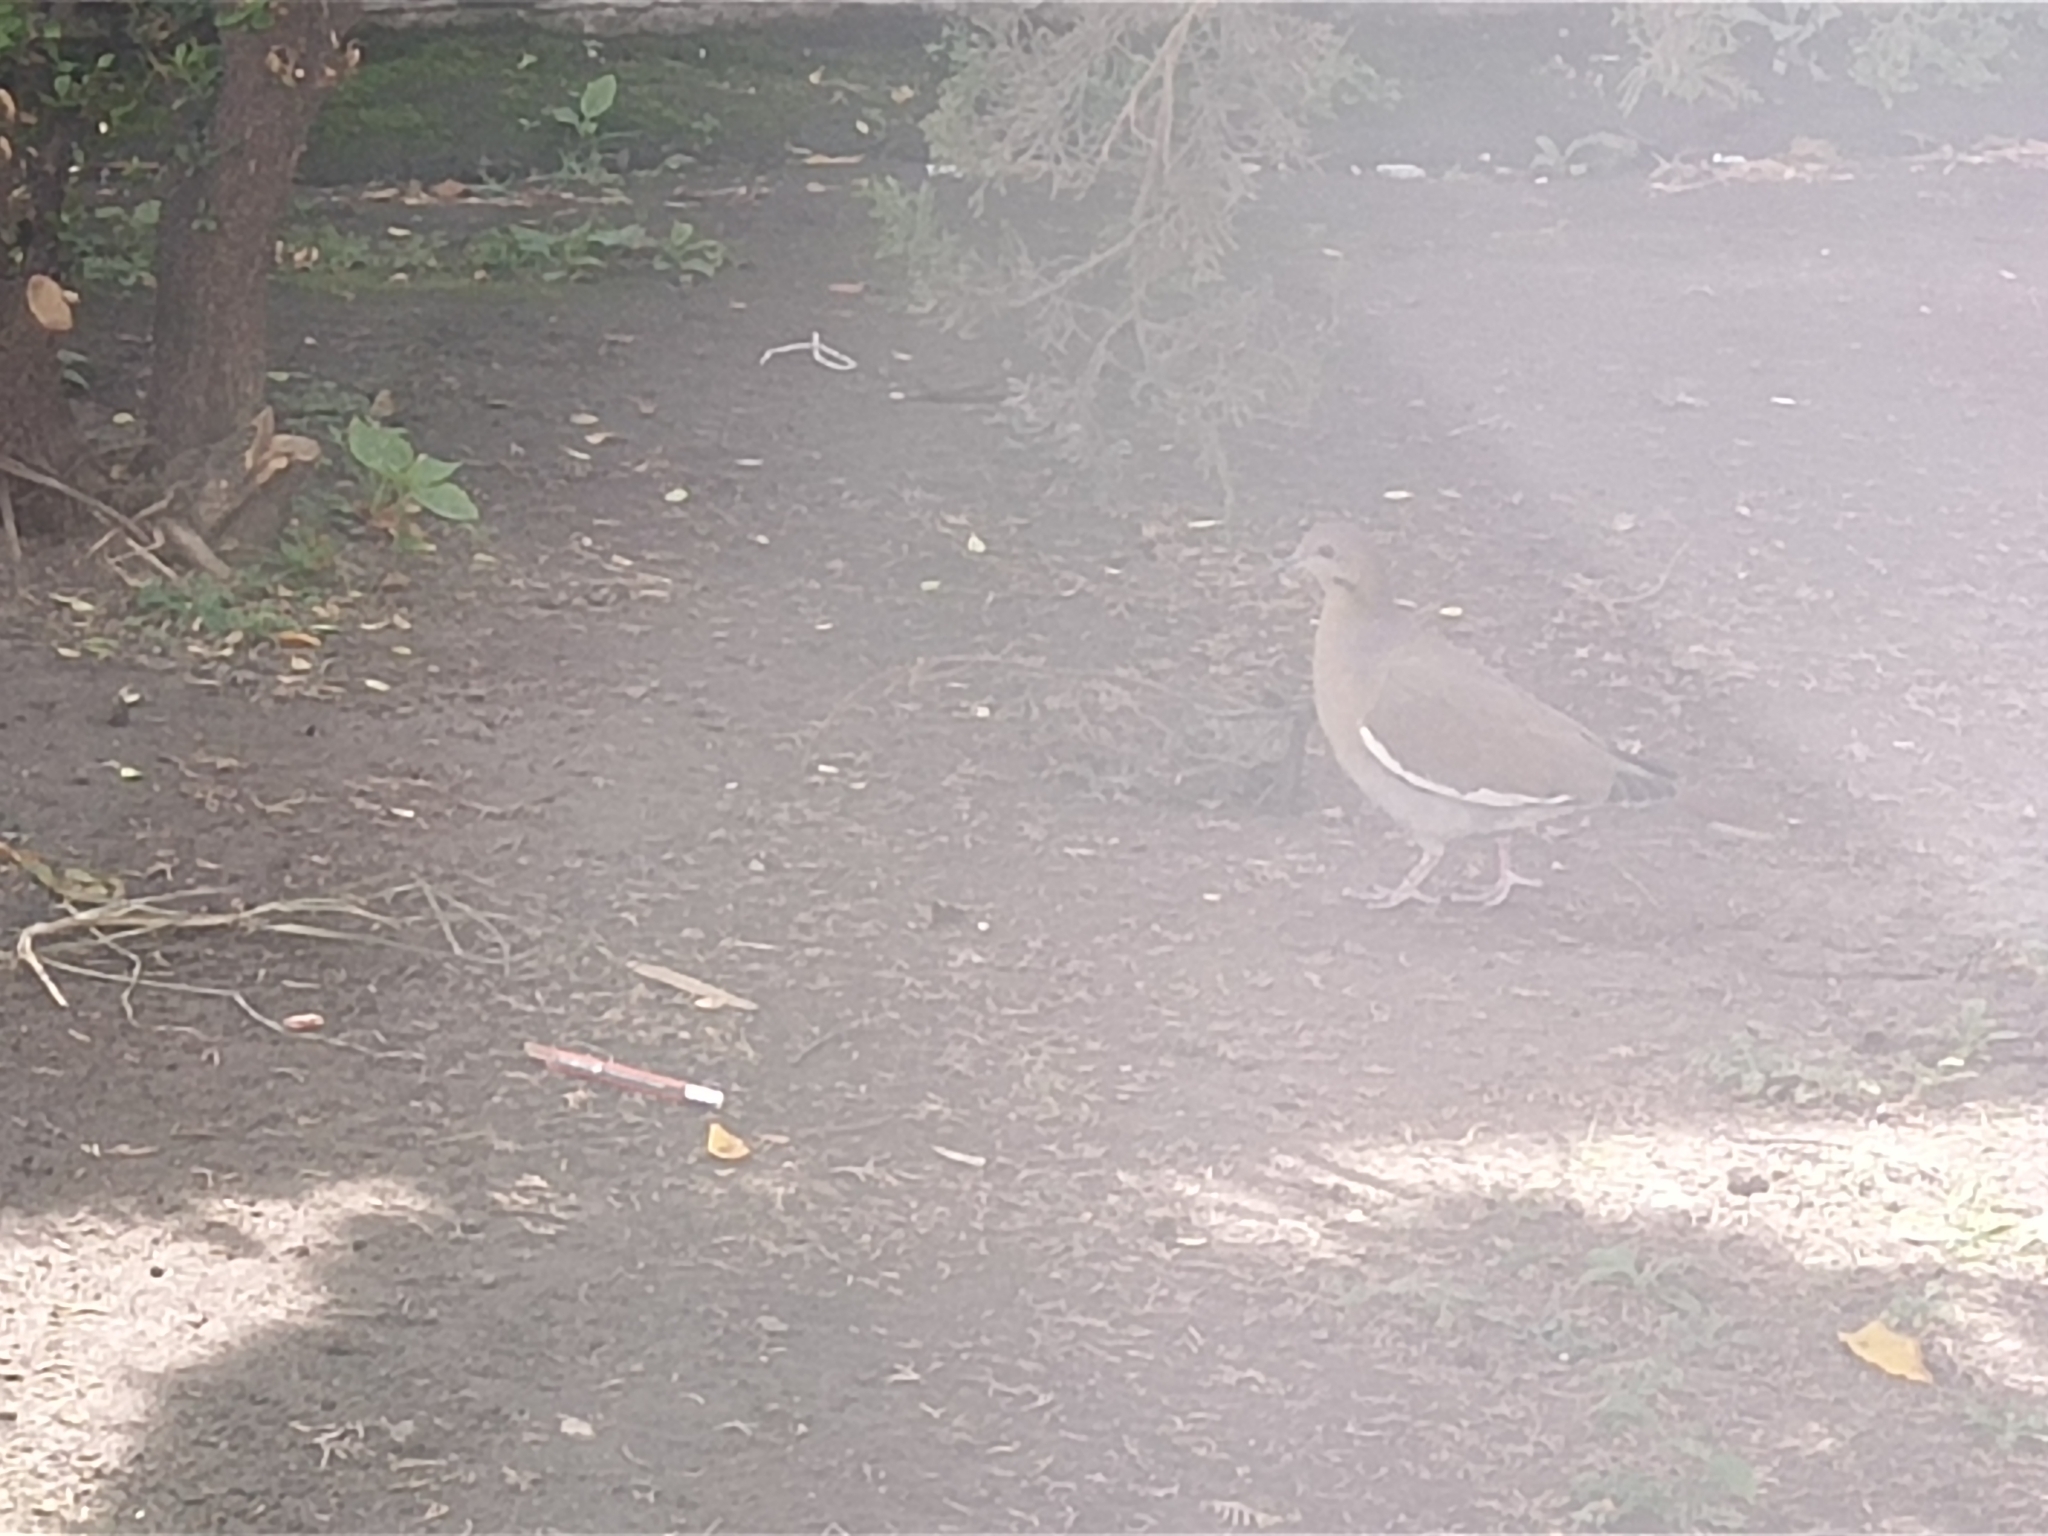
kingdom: Animalia
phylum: Chordata
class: Aves
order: Columbiformes
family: Columbidae
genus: Zenaida
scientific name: Zenaida asiatica
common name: White-winged dove
